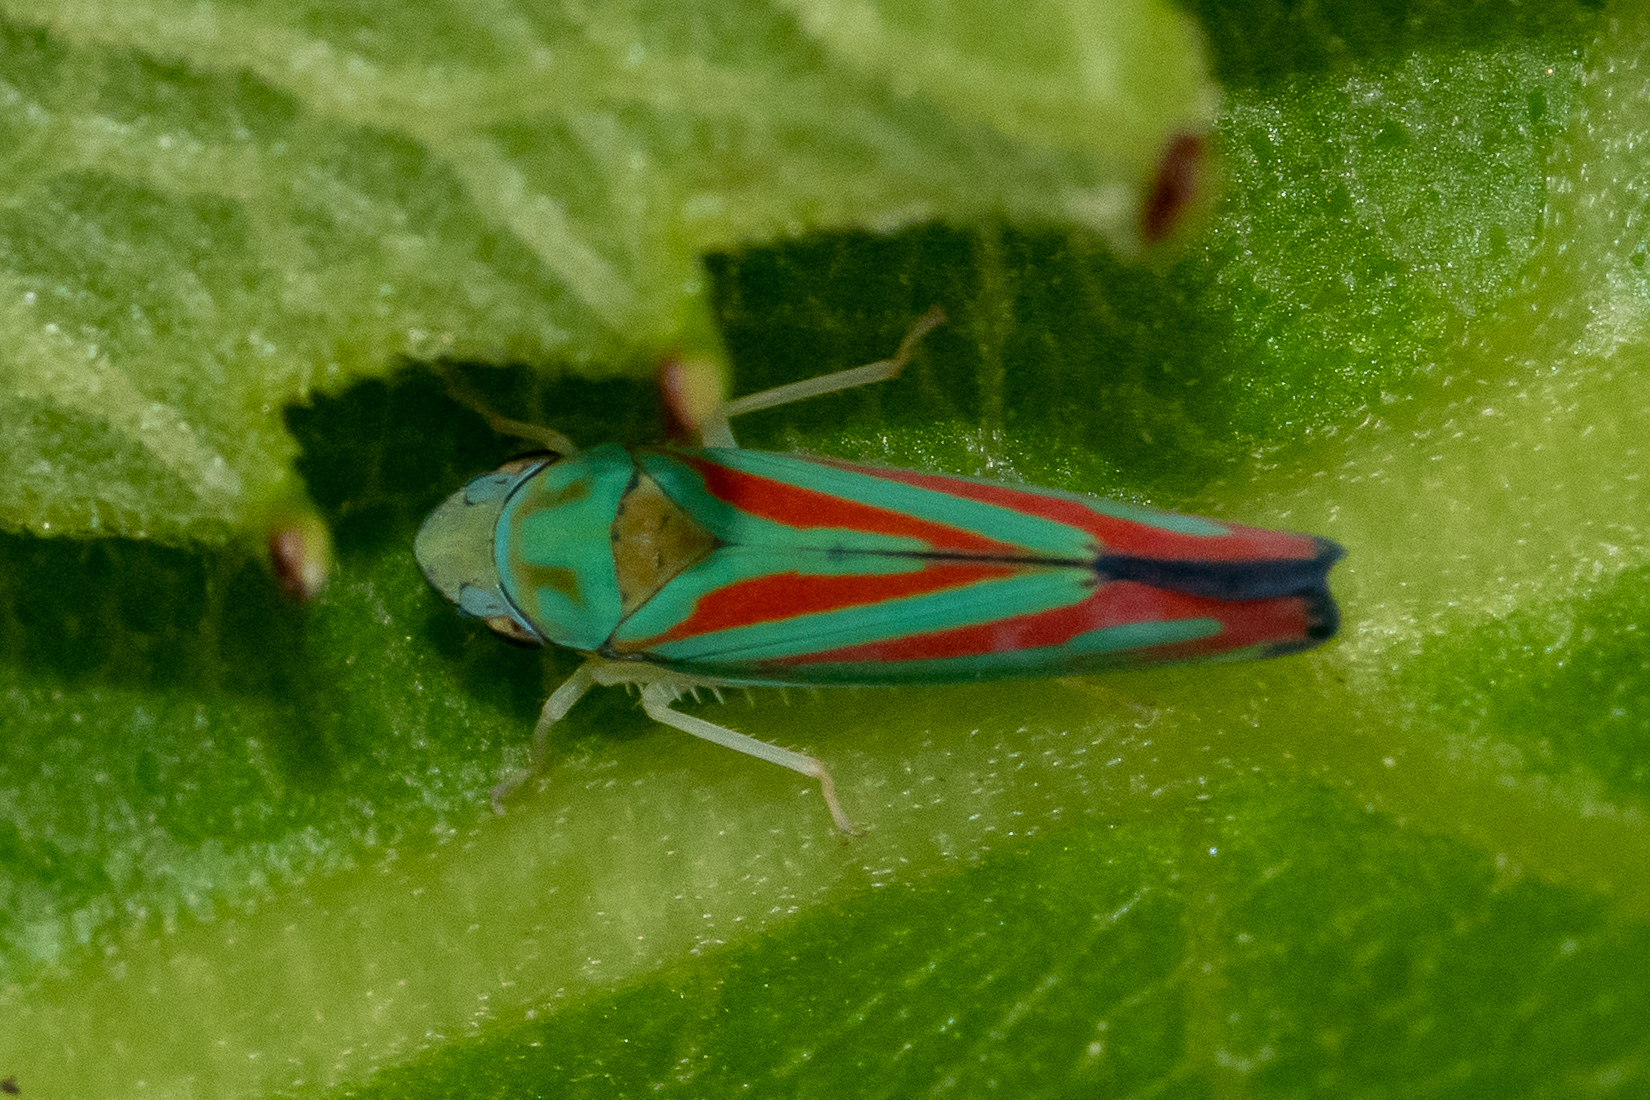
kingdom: Animalia
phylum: Arthropoda
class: Insecta
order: Hemiptera
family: Cicadellidae
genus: Graphocephala
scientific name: Graphocephala coccinea
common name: Candy-striped leafhopper
